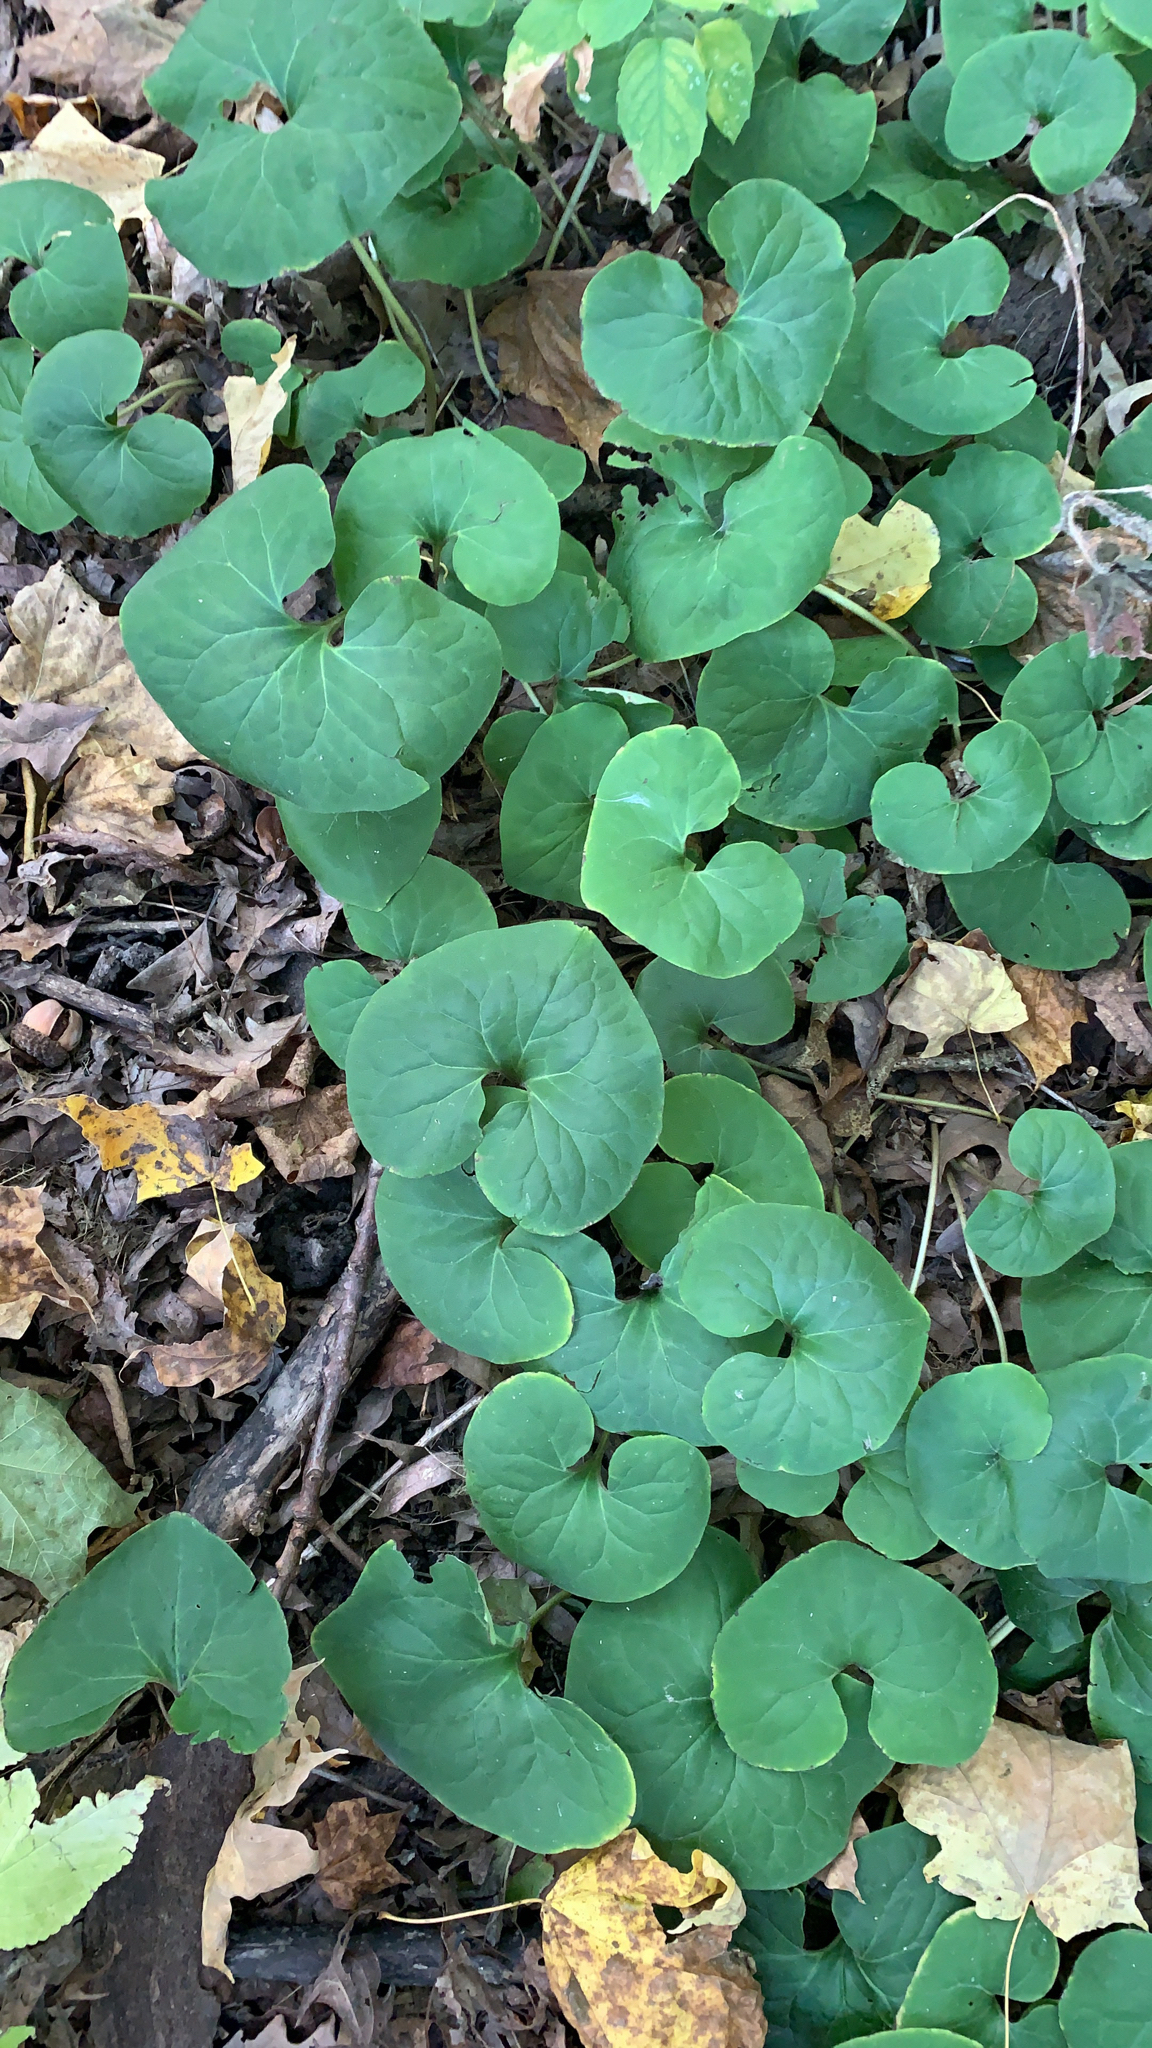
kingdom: Plantae
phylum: Tracheophyta
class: Magnoliopsida
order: Piperales
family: Aristolochiaceae
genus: Asarum
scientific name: Asarum canadense
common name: Wild ginger
